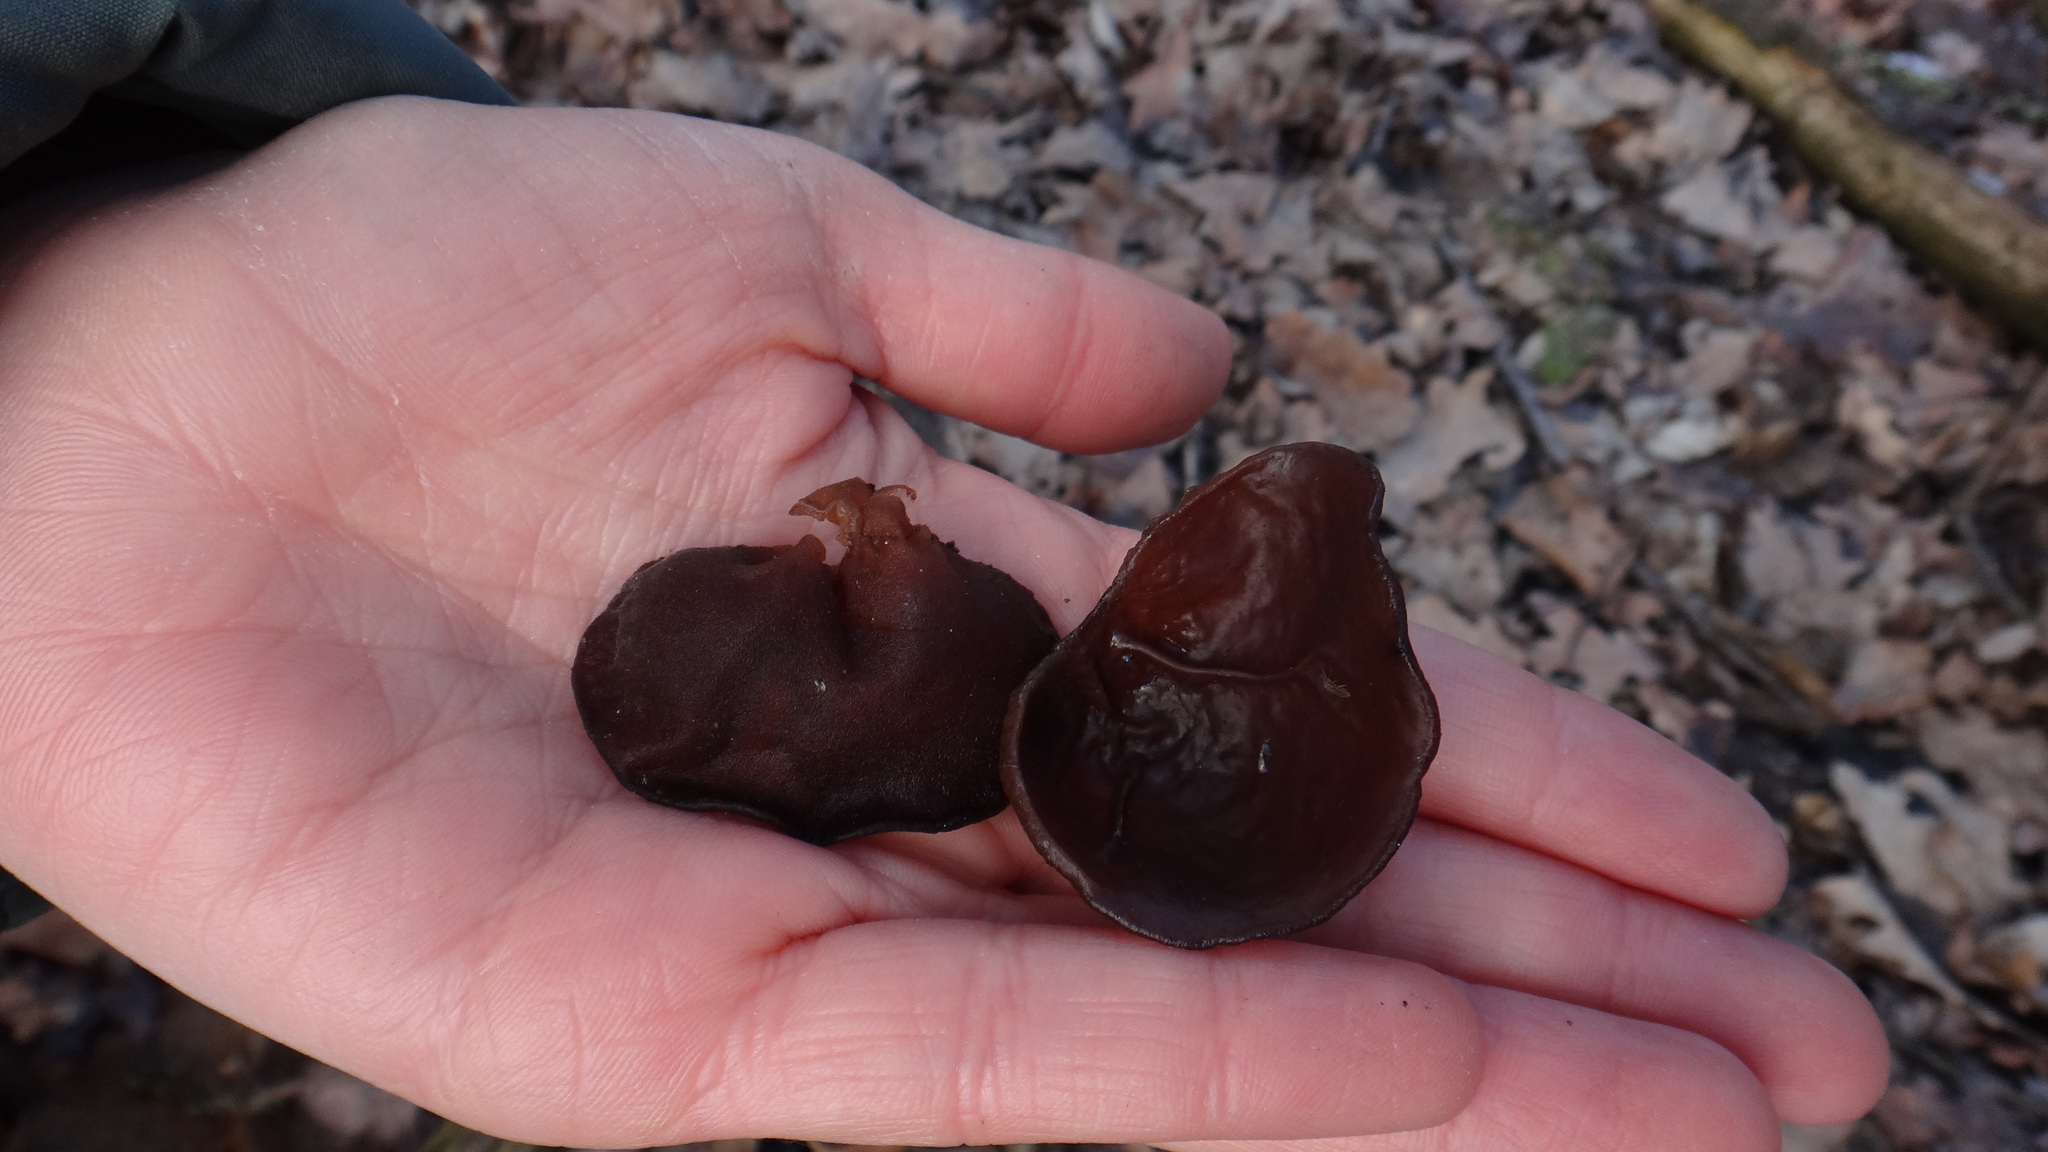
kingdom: Fungi
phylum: Basidiomycota
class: Agaricomycetes
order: Auriculariales
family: Auriculariaceae
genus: Auricularia
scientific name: Auricularia auricula-judae
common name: Jelly ear
